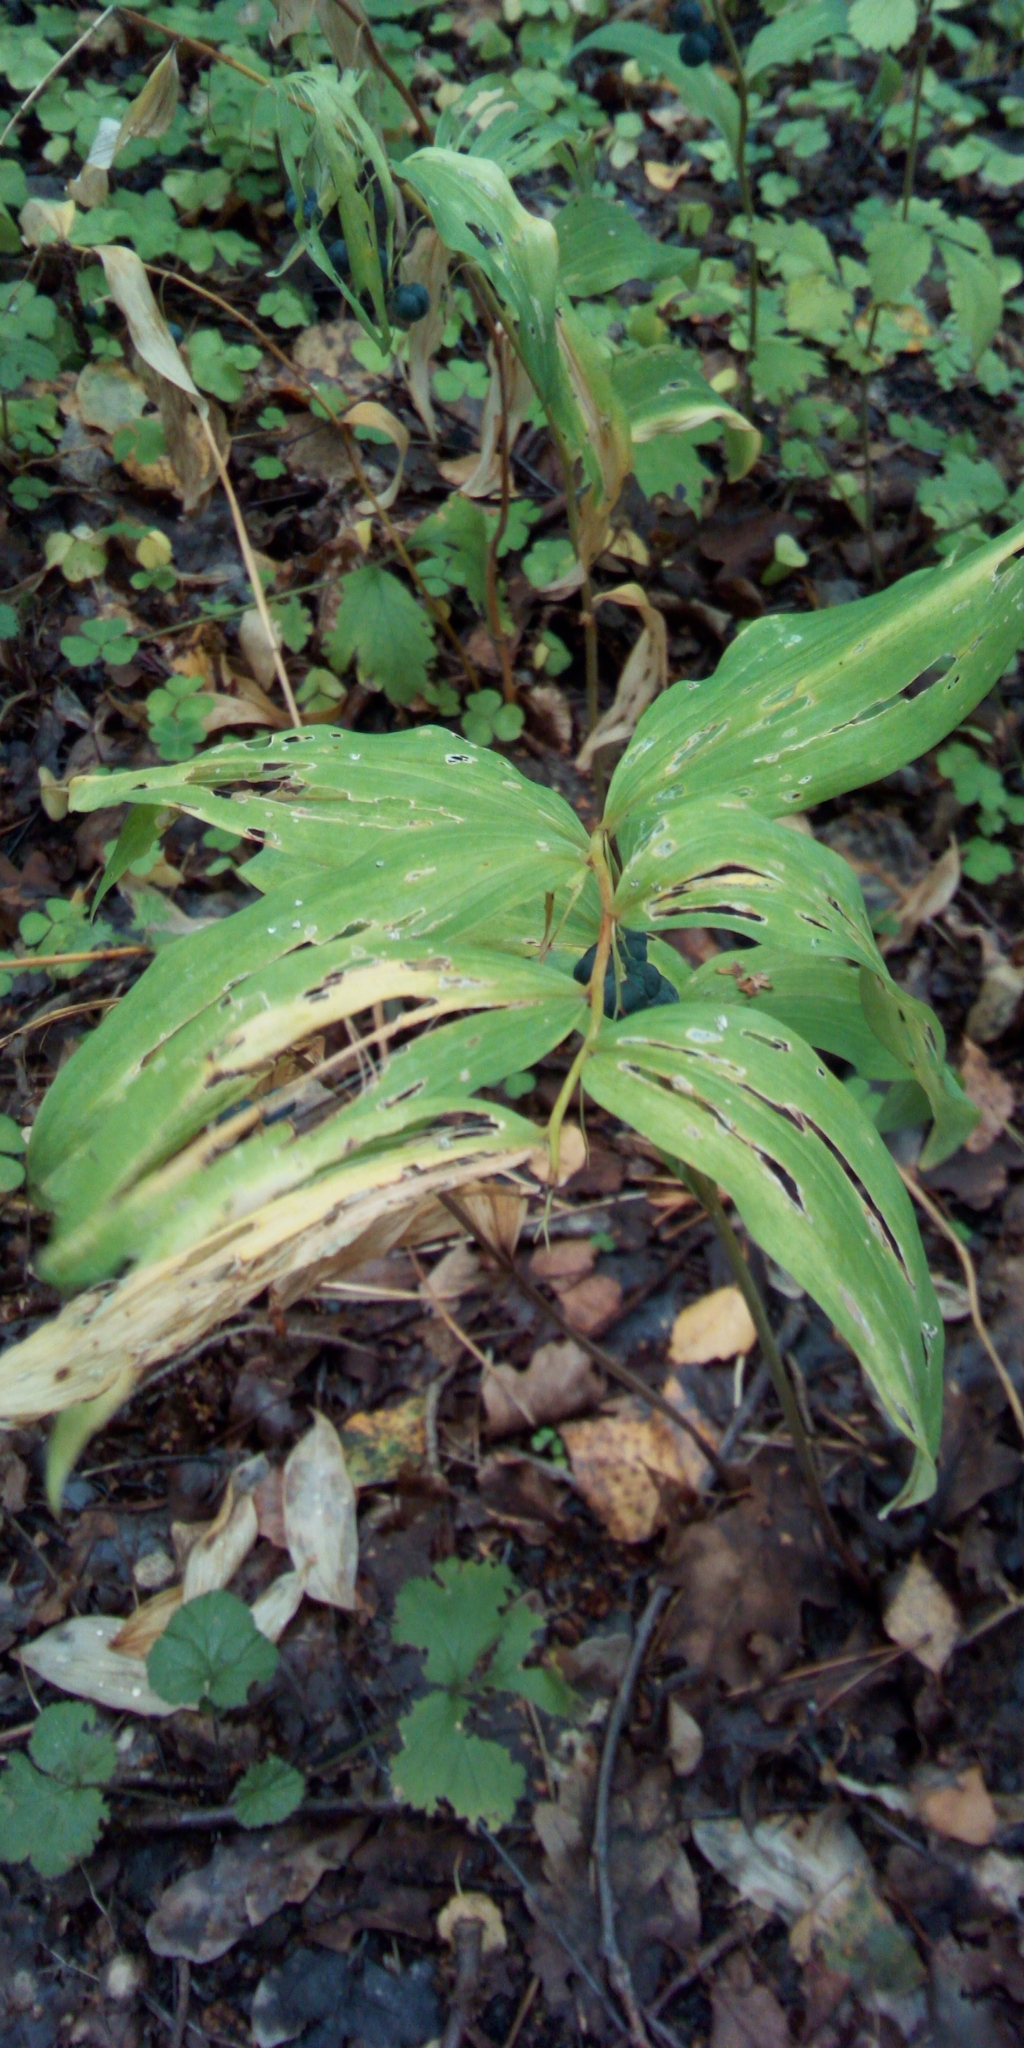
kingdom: Plantae
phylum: Tracheophyta
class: Liliopsida
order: Asparagales
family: Asparagaceae
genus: Polygonatum
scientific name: Polygonatum odoratum
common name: Angular solomon's-seal
